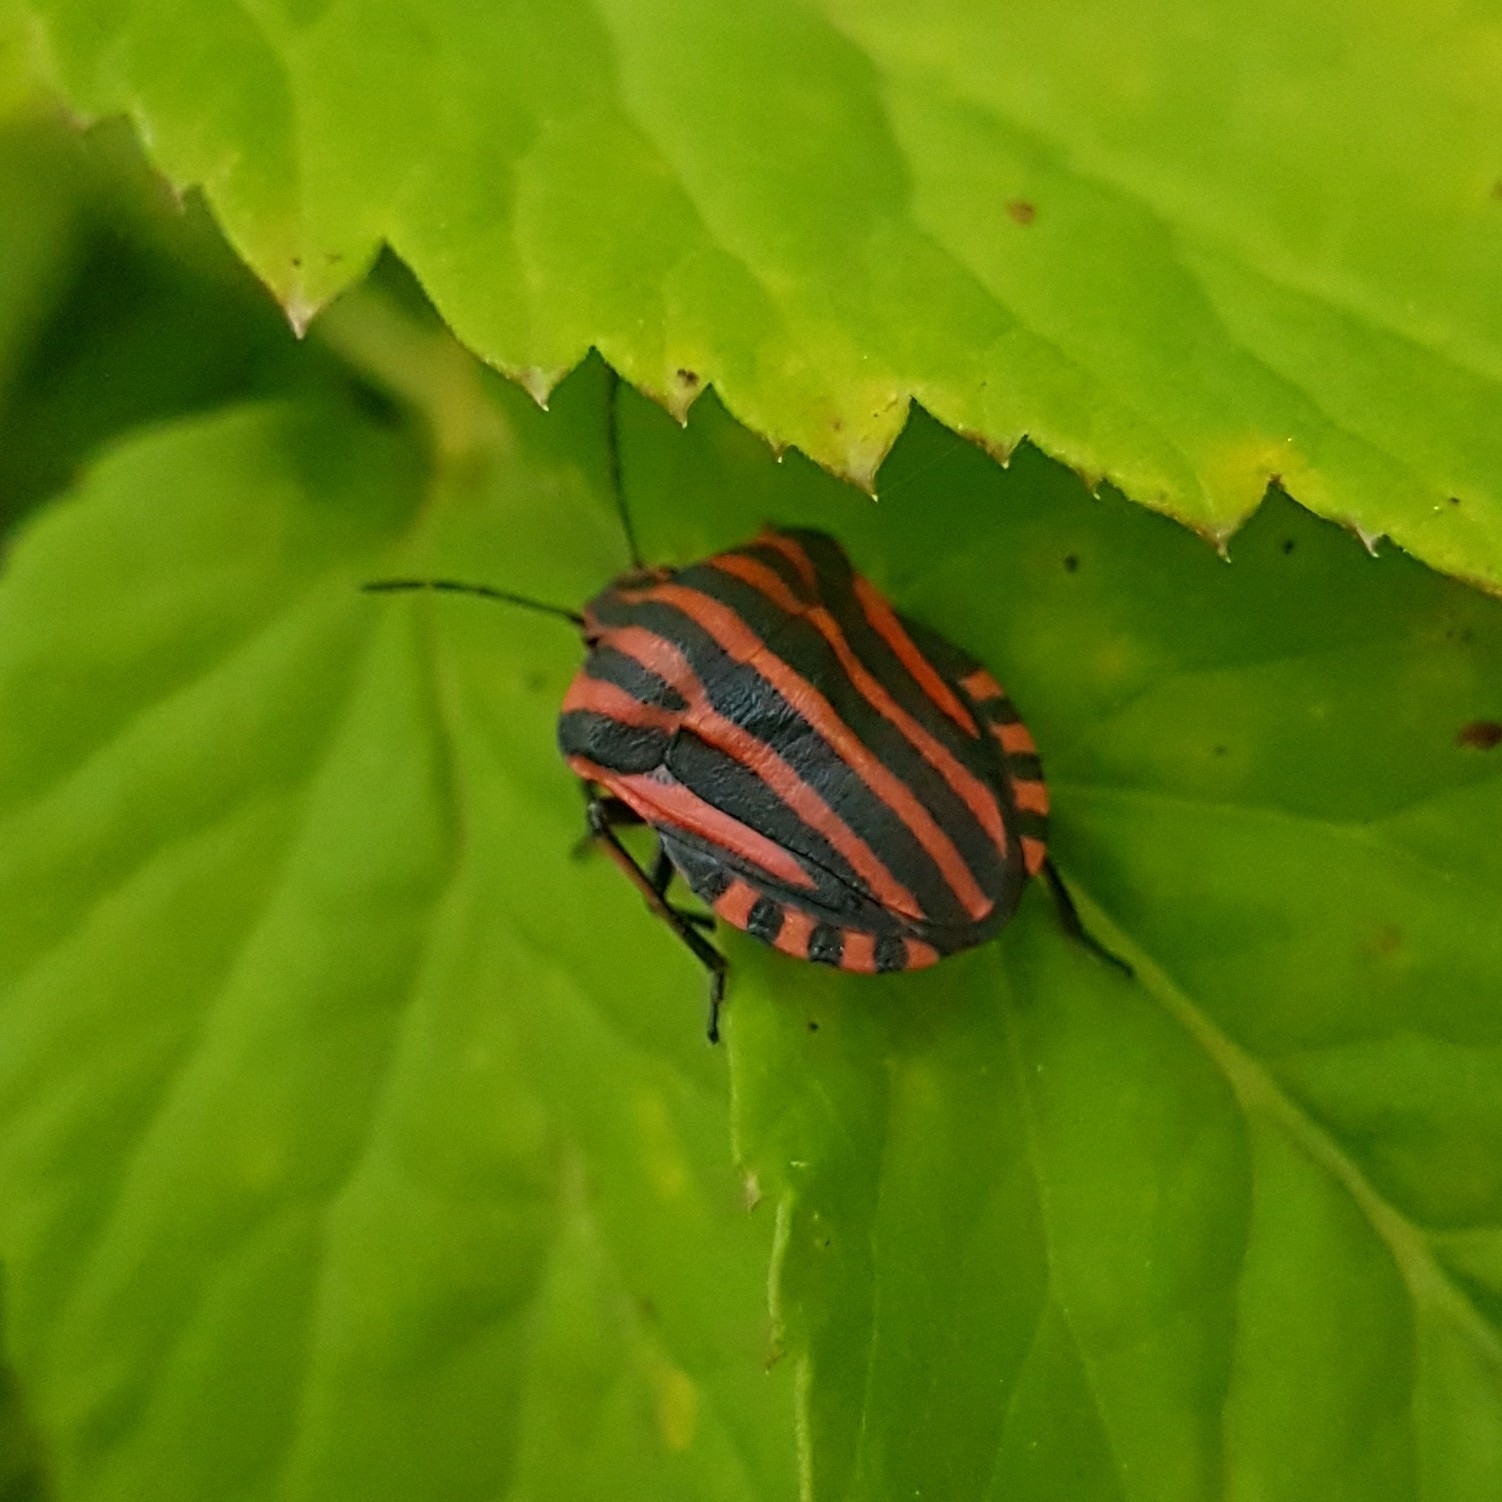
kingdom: Animalia
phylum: Arthropoda
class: Insecta
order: Hemiptera
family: Pentatomidae
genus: Graphosoma
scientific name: Graphosoma italicum
